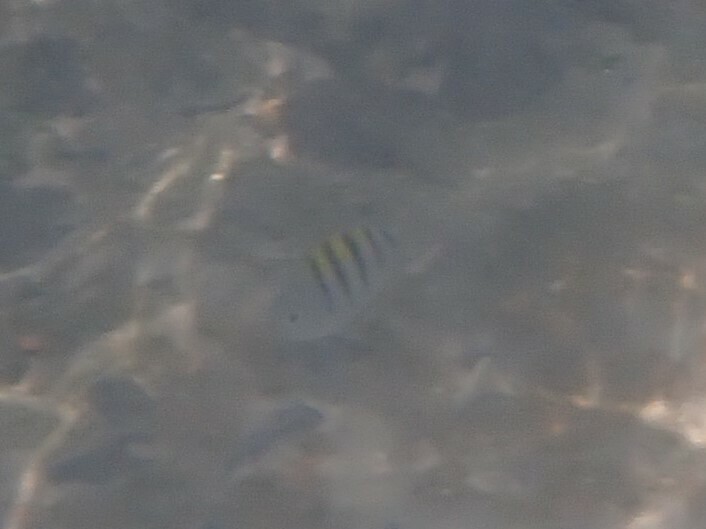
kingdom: Animalia
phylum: Chordata
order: Perciformes
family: Pomacentridae
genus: Abudefduf
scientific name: Abudefduf saxatilis
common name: Sergeant major
